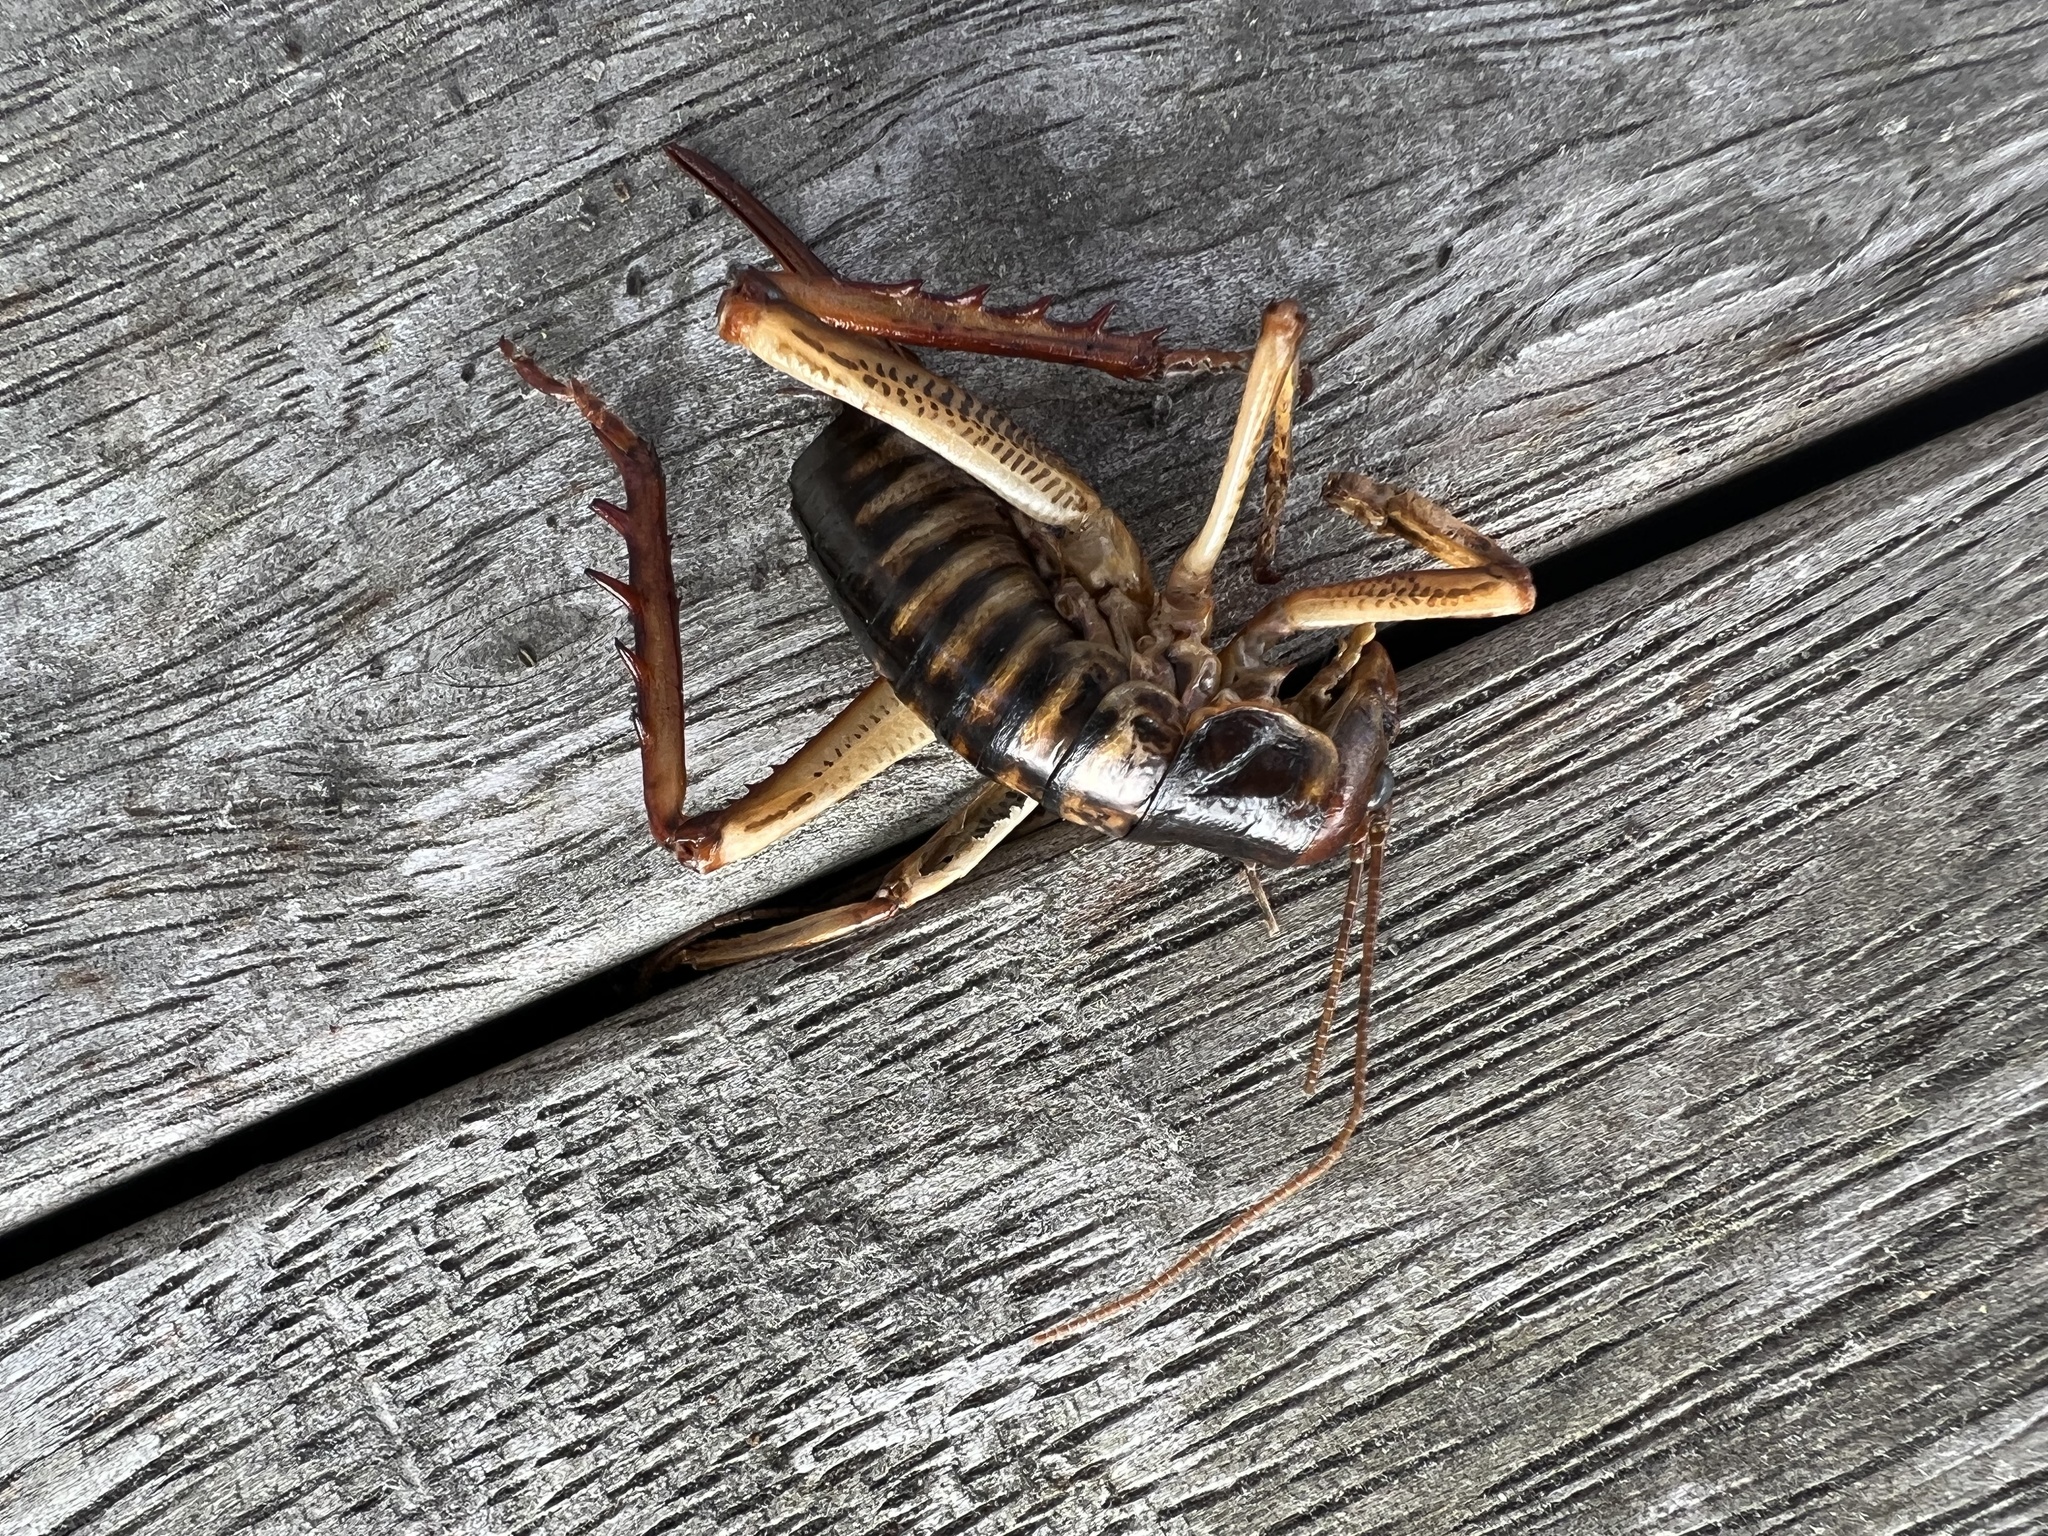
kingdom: Animalia
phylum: Arthropoda
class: Insecta
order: Orthoptera
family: Anostostomatidae
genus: Hemideina
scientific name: Hemideina crassidens
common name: Wellington tree weta
